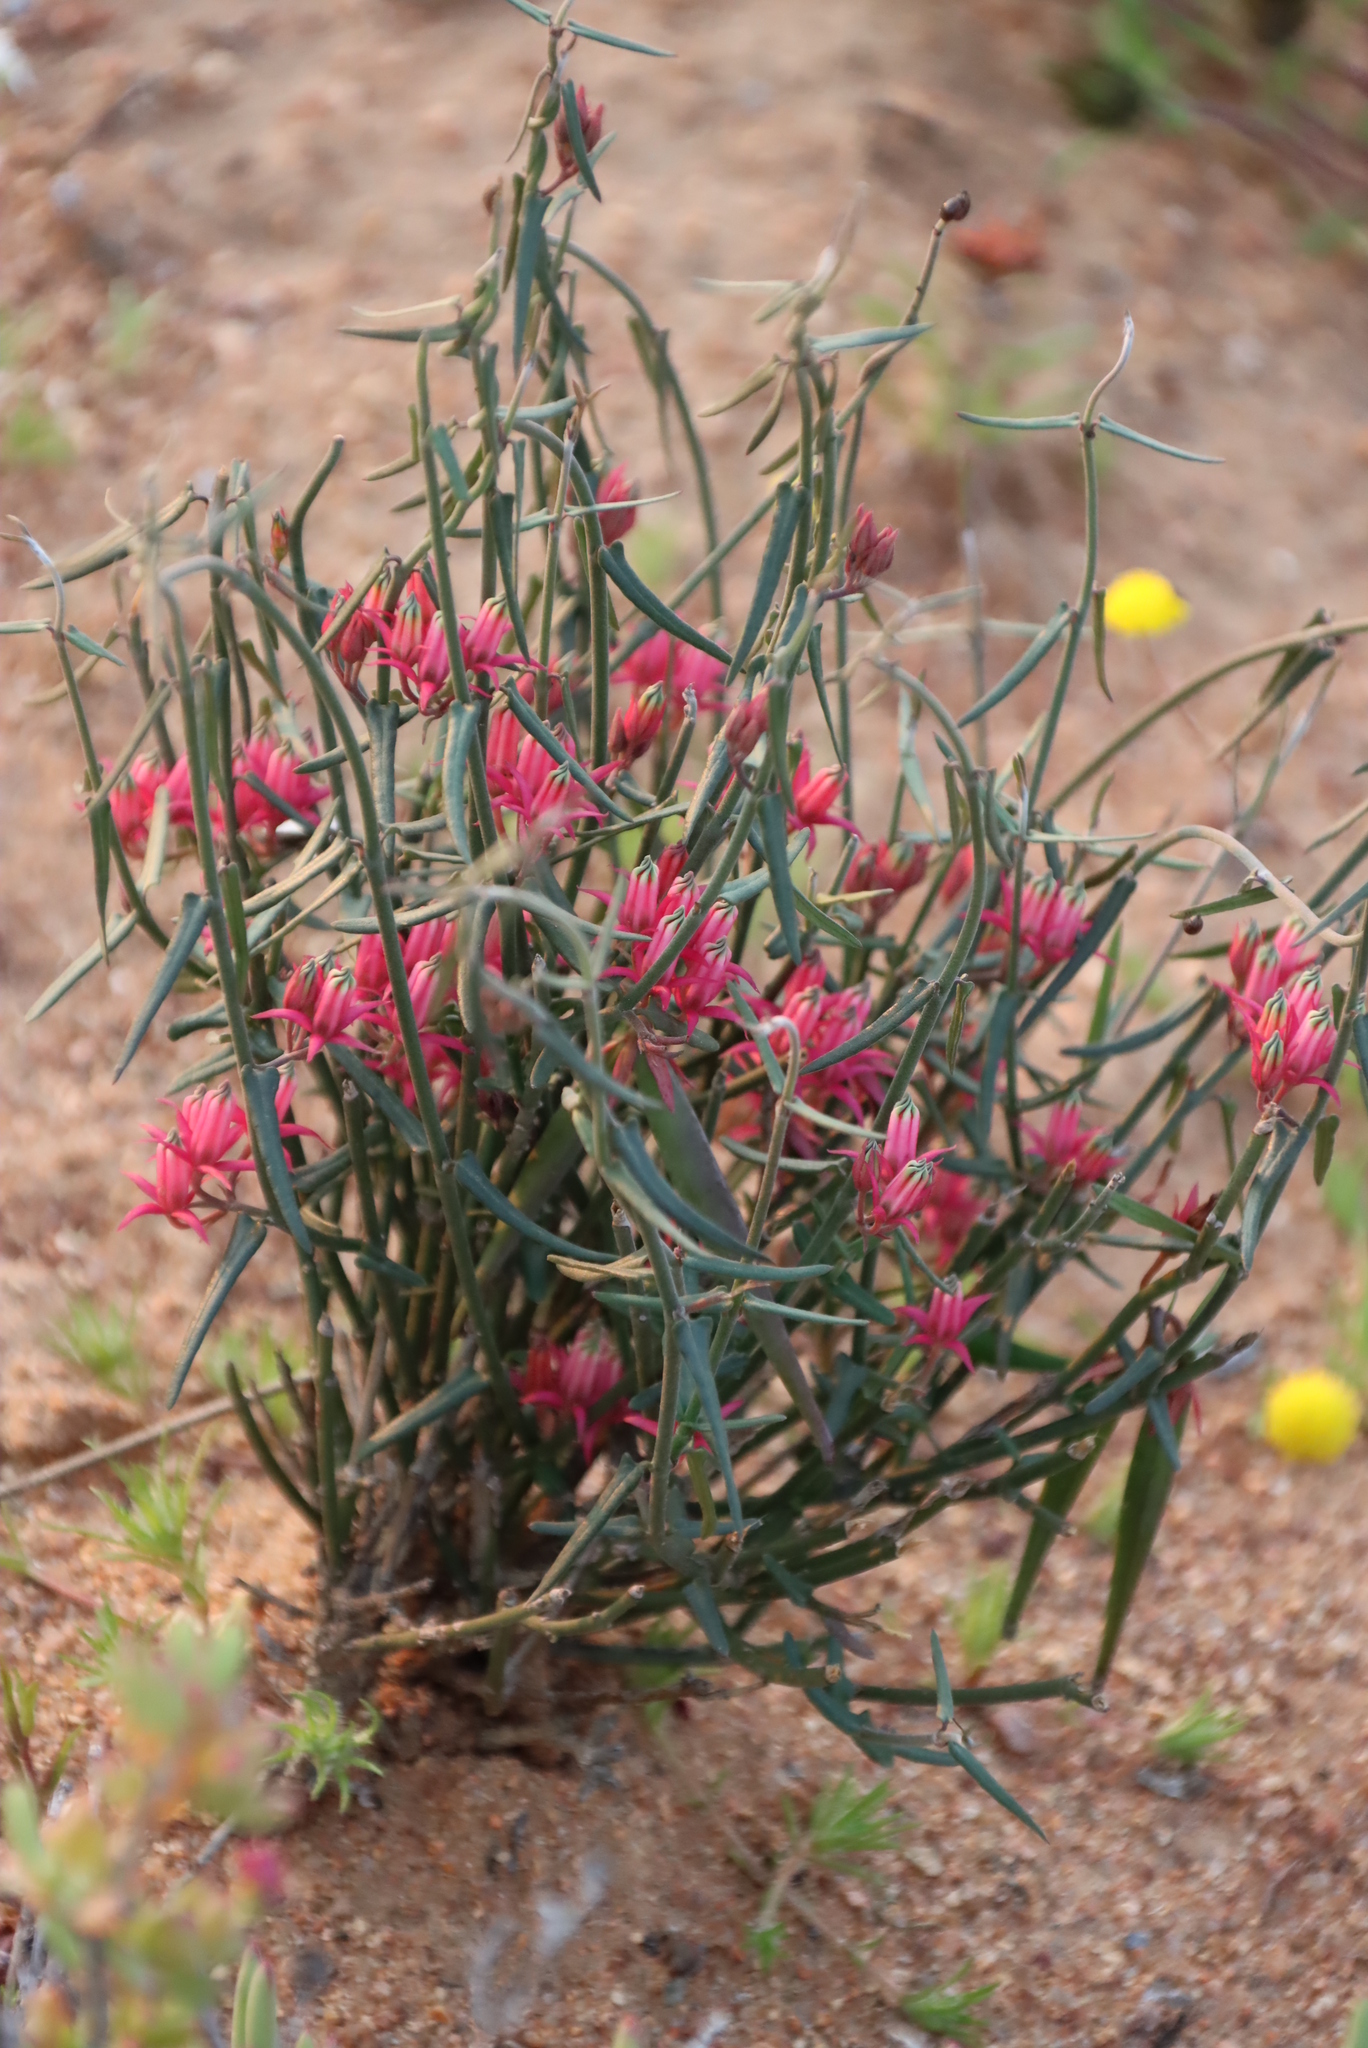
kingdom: Plantae
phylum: Tracheophyta
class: Magnoliopsida
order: Gentianales
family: Apocynaceae
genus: Microloma
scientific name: Microloma sagittatum
